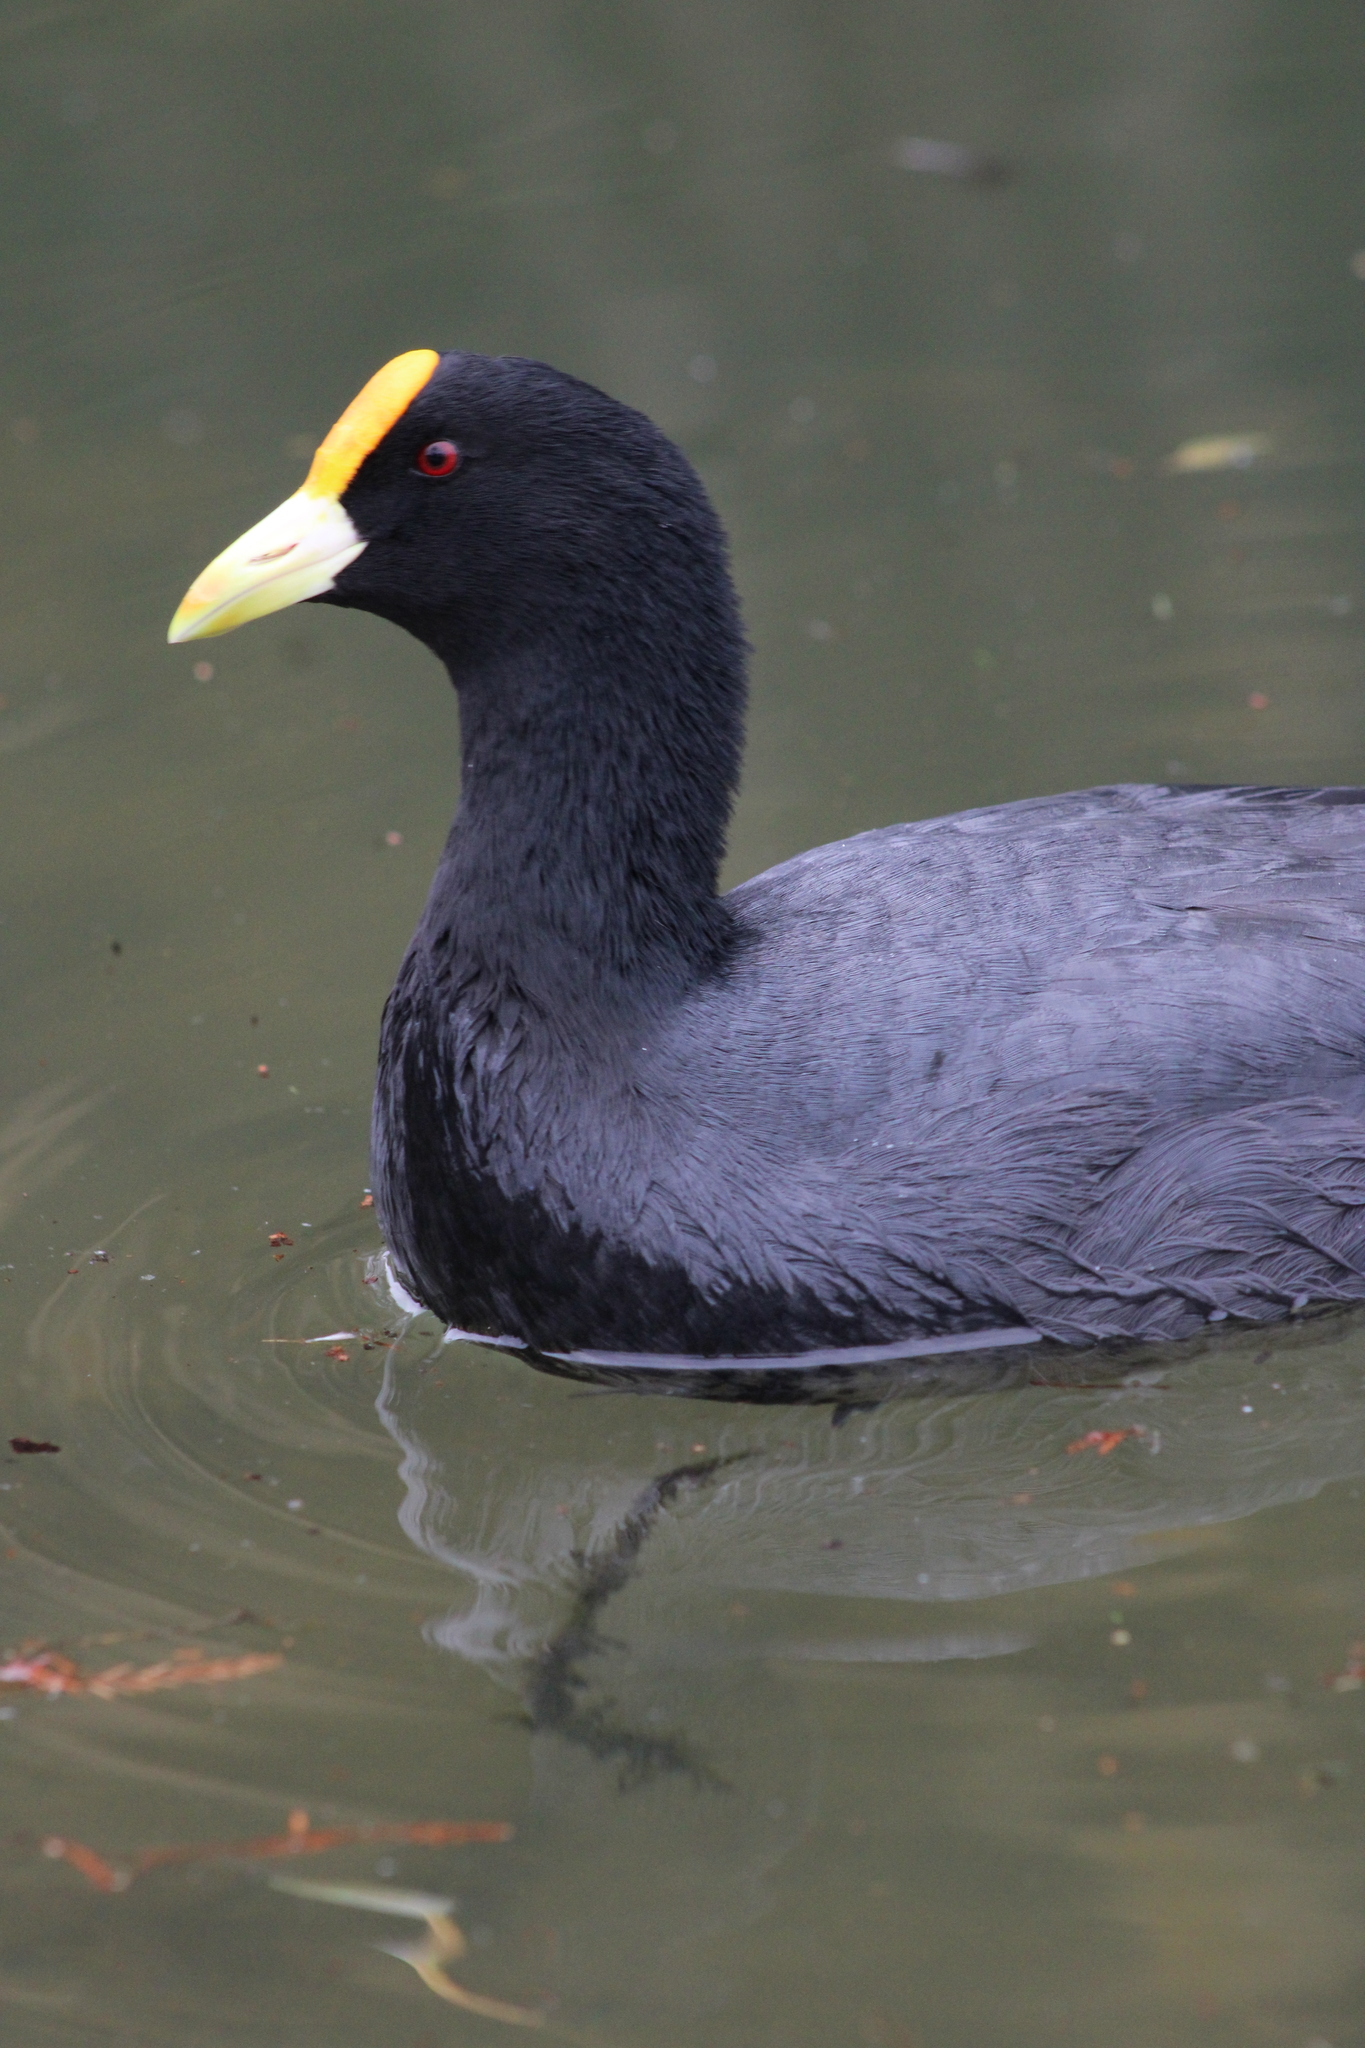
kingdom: Animalia
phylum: Chordata
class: Aves
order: Gruiformes
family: Rallidae
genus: Fulica
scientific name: Fulica leucoptera
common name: White-winged coot
